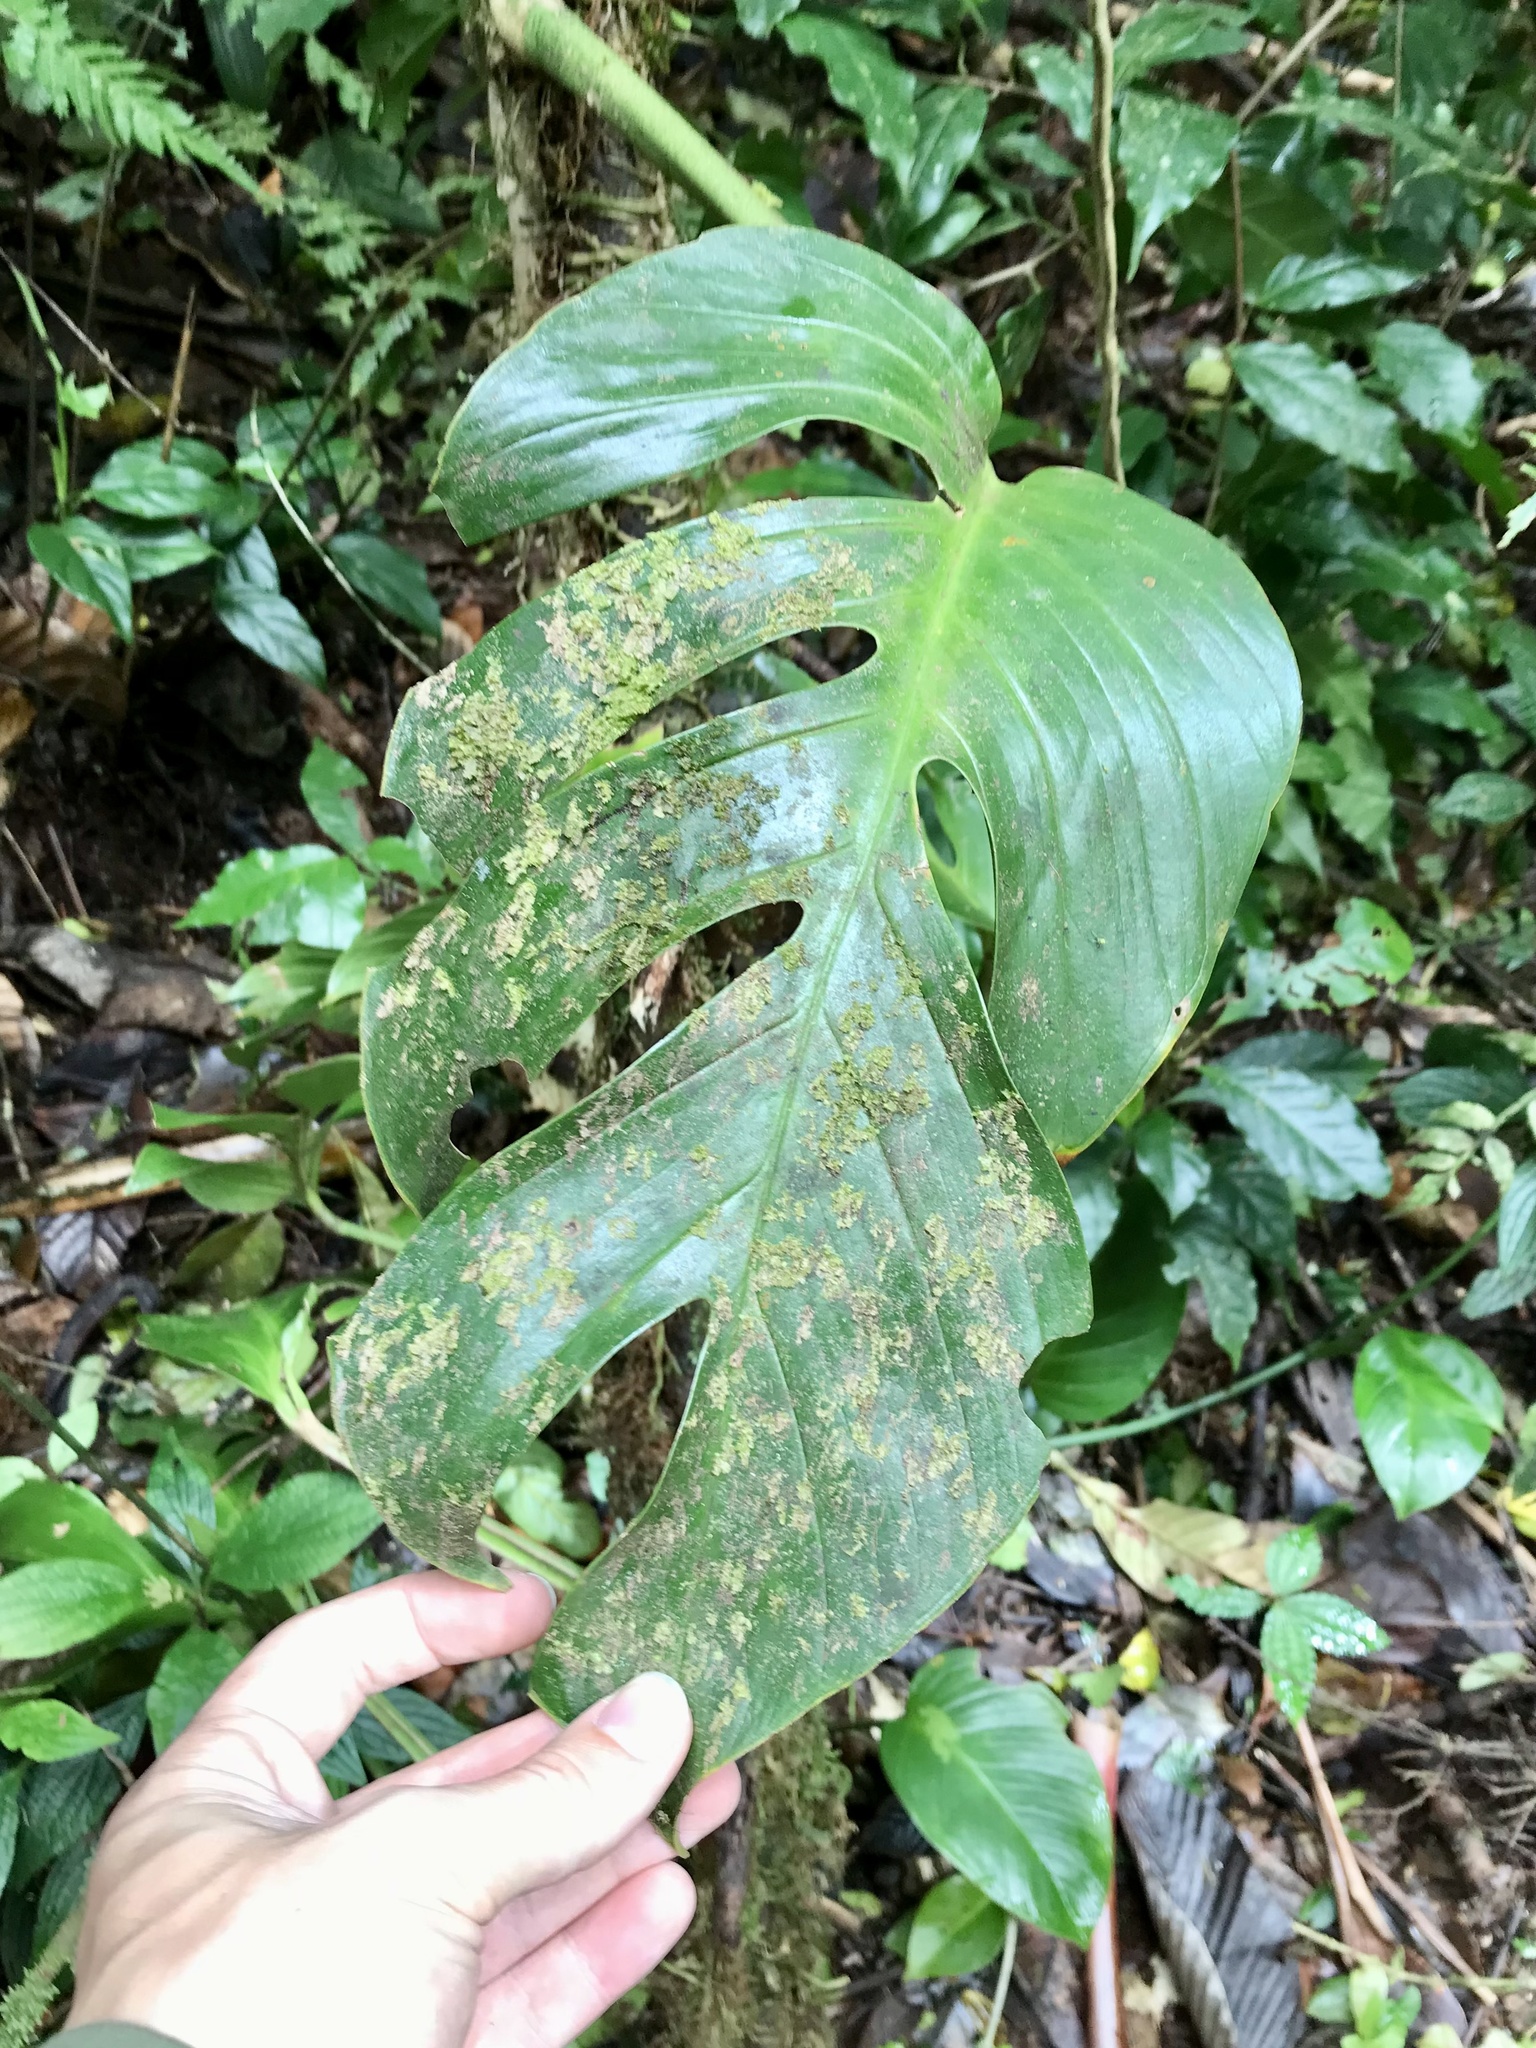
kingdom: Plantae
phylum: Tracheophyta
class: Liliopsida
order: Alismatales
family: Araceae
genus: Monstera
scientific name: Monstera monteverdensis
